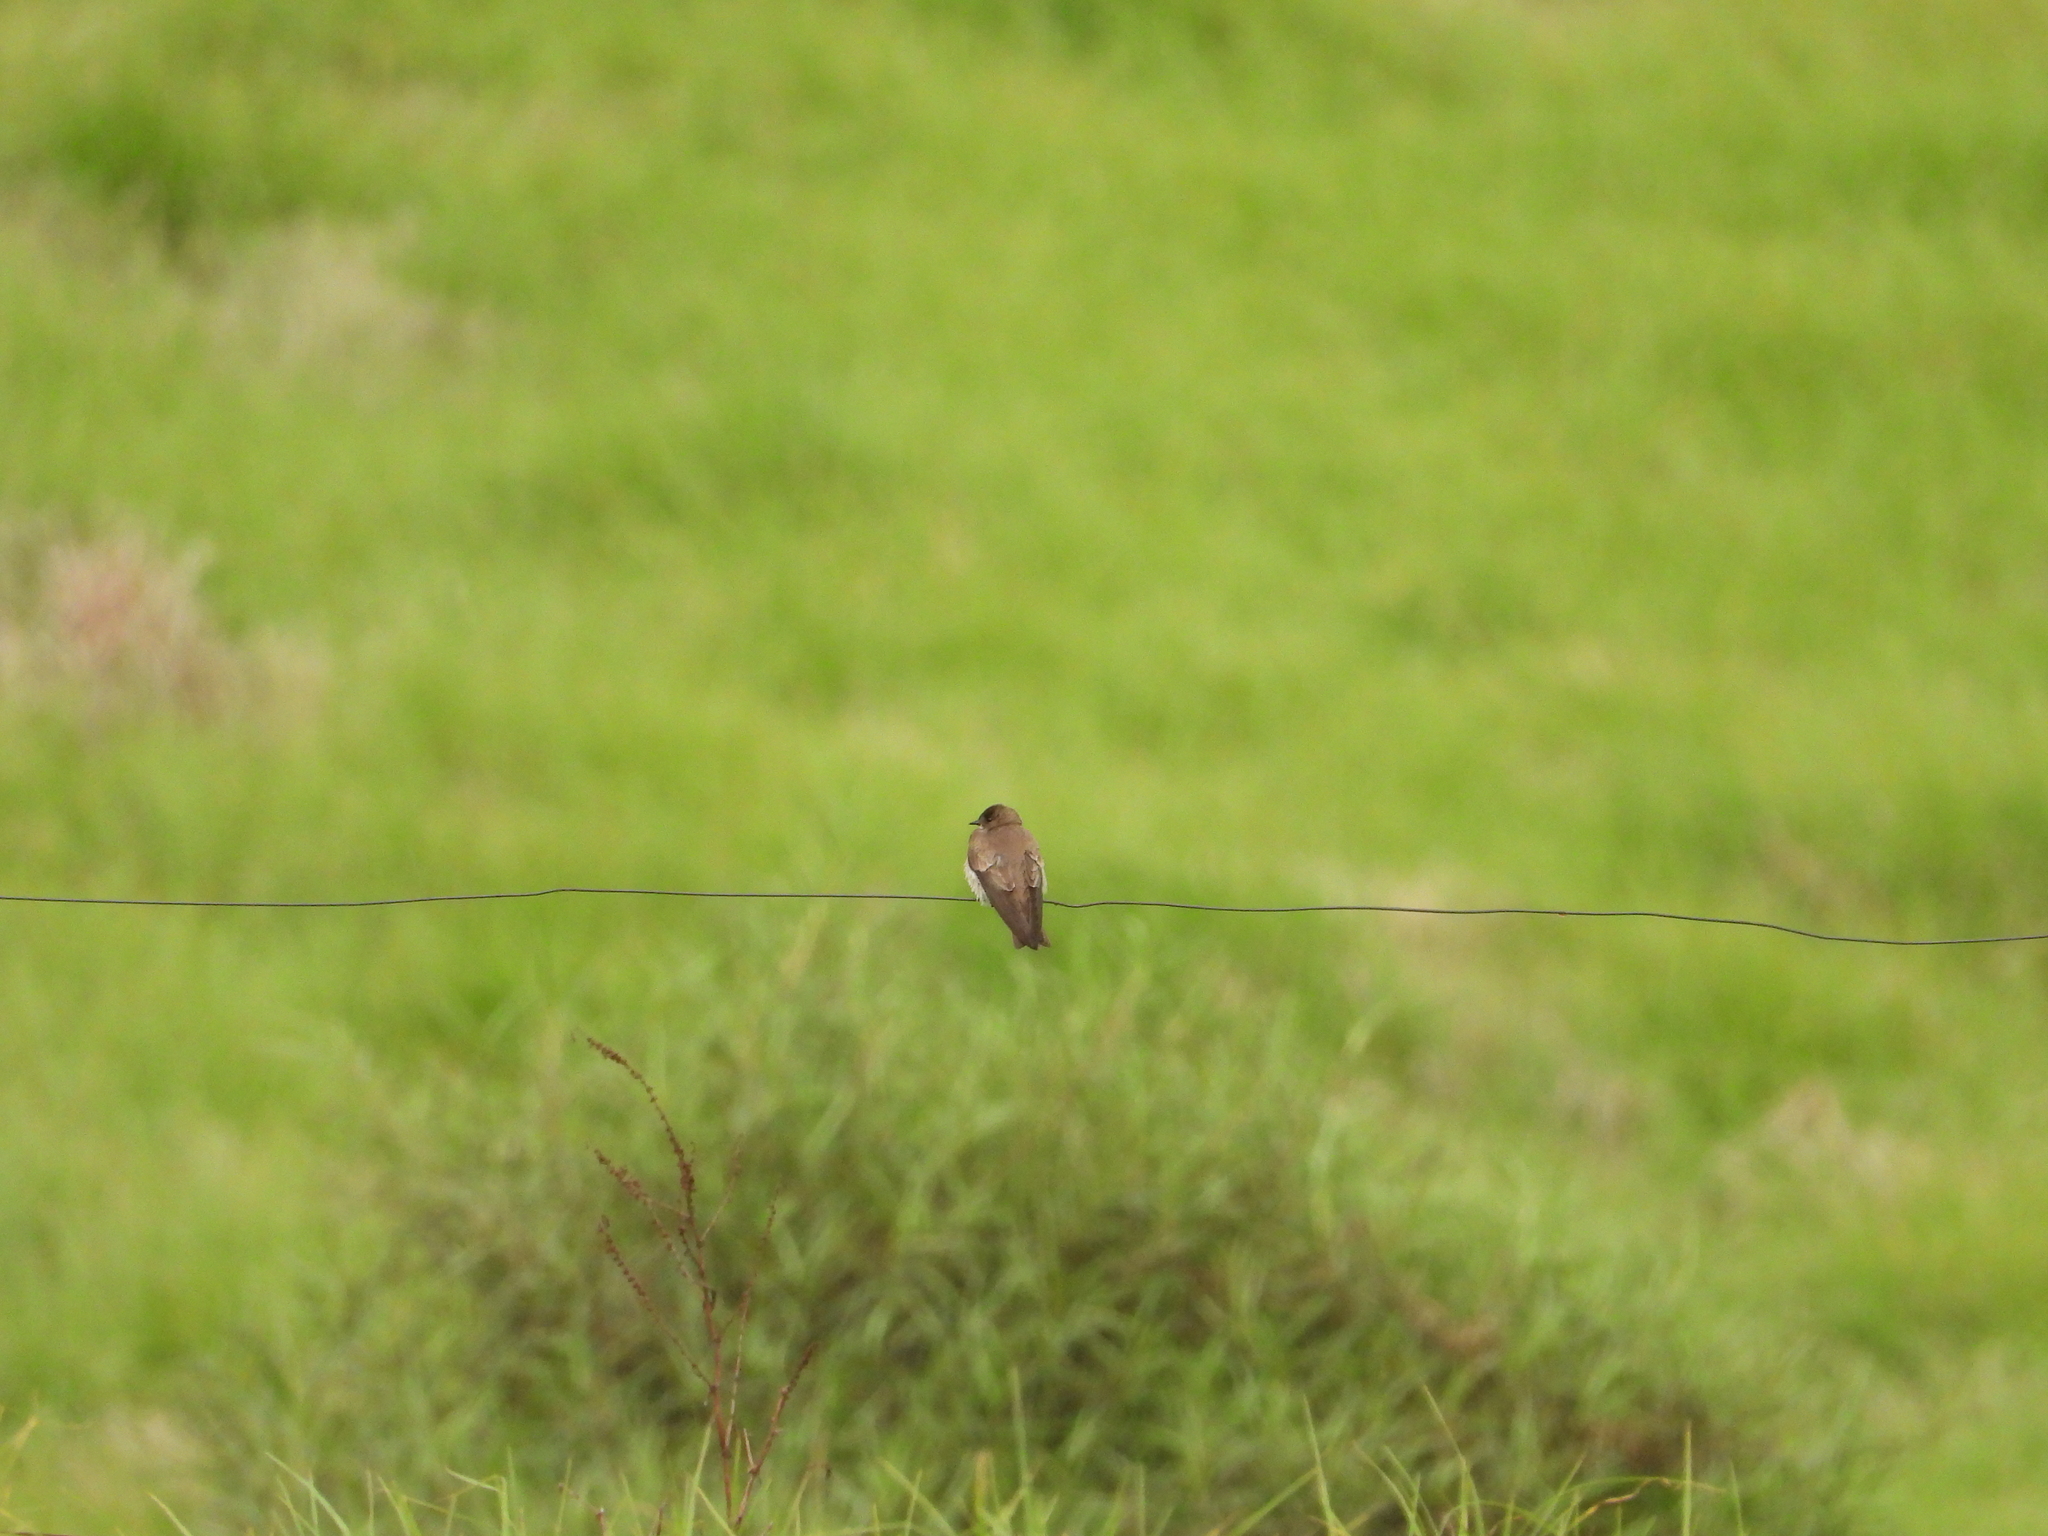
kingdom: Animalia
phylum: Chordata
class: Aves
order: Passeriformes
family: Hirundinidae
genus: Stelgidopteryx
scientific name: Stelgidopteryx serripennis
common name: Northern rough-winged swallow
